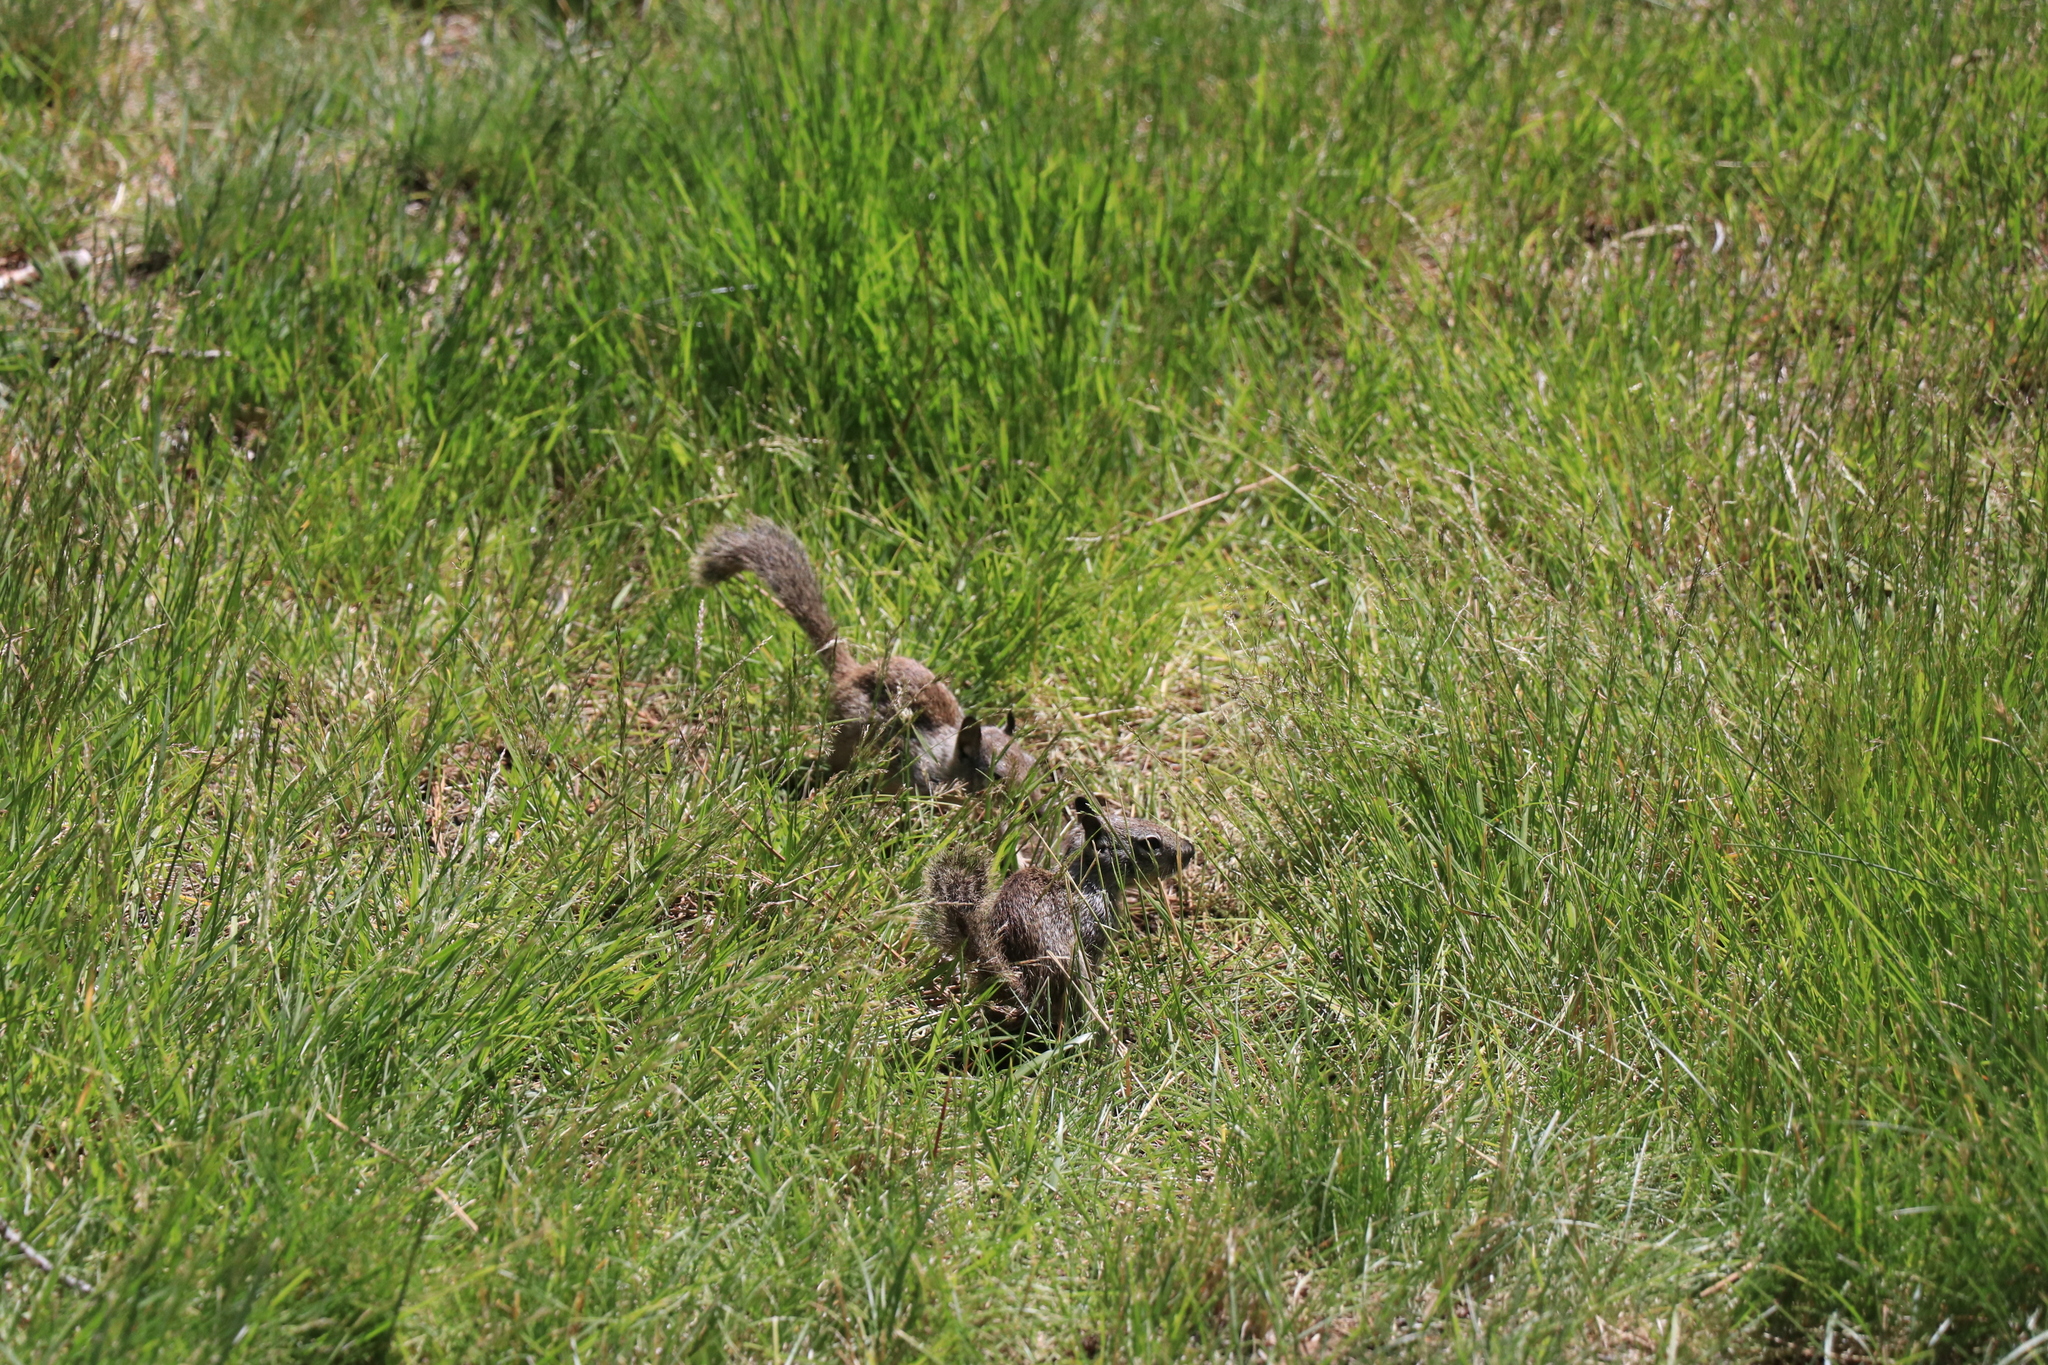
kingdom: Animalia
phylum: Chordata
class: Mammalia
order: Rodentia
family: Sciuridae
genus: Otospermophilus
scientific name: Otospermophilus beecheyi
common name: California ground squirrel
